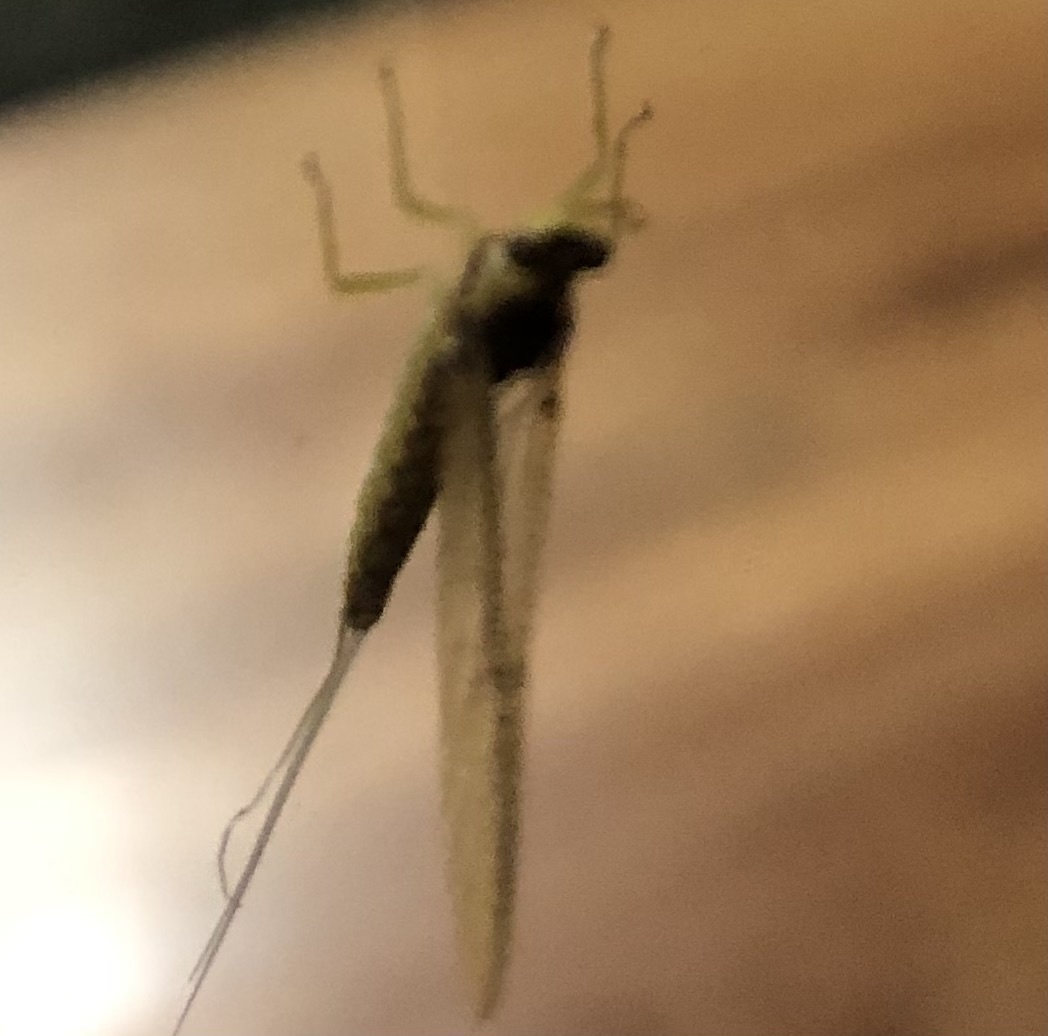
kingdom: Animalia
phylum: Arthropoda
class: Insecta
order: Ephemeroptera
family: Ephemeridae
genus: Pentagenia
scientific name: Pentagenia vittigera
